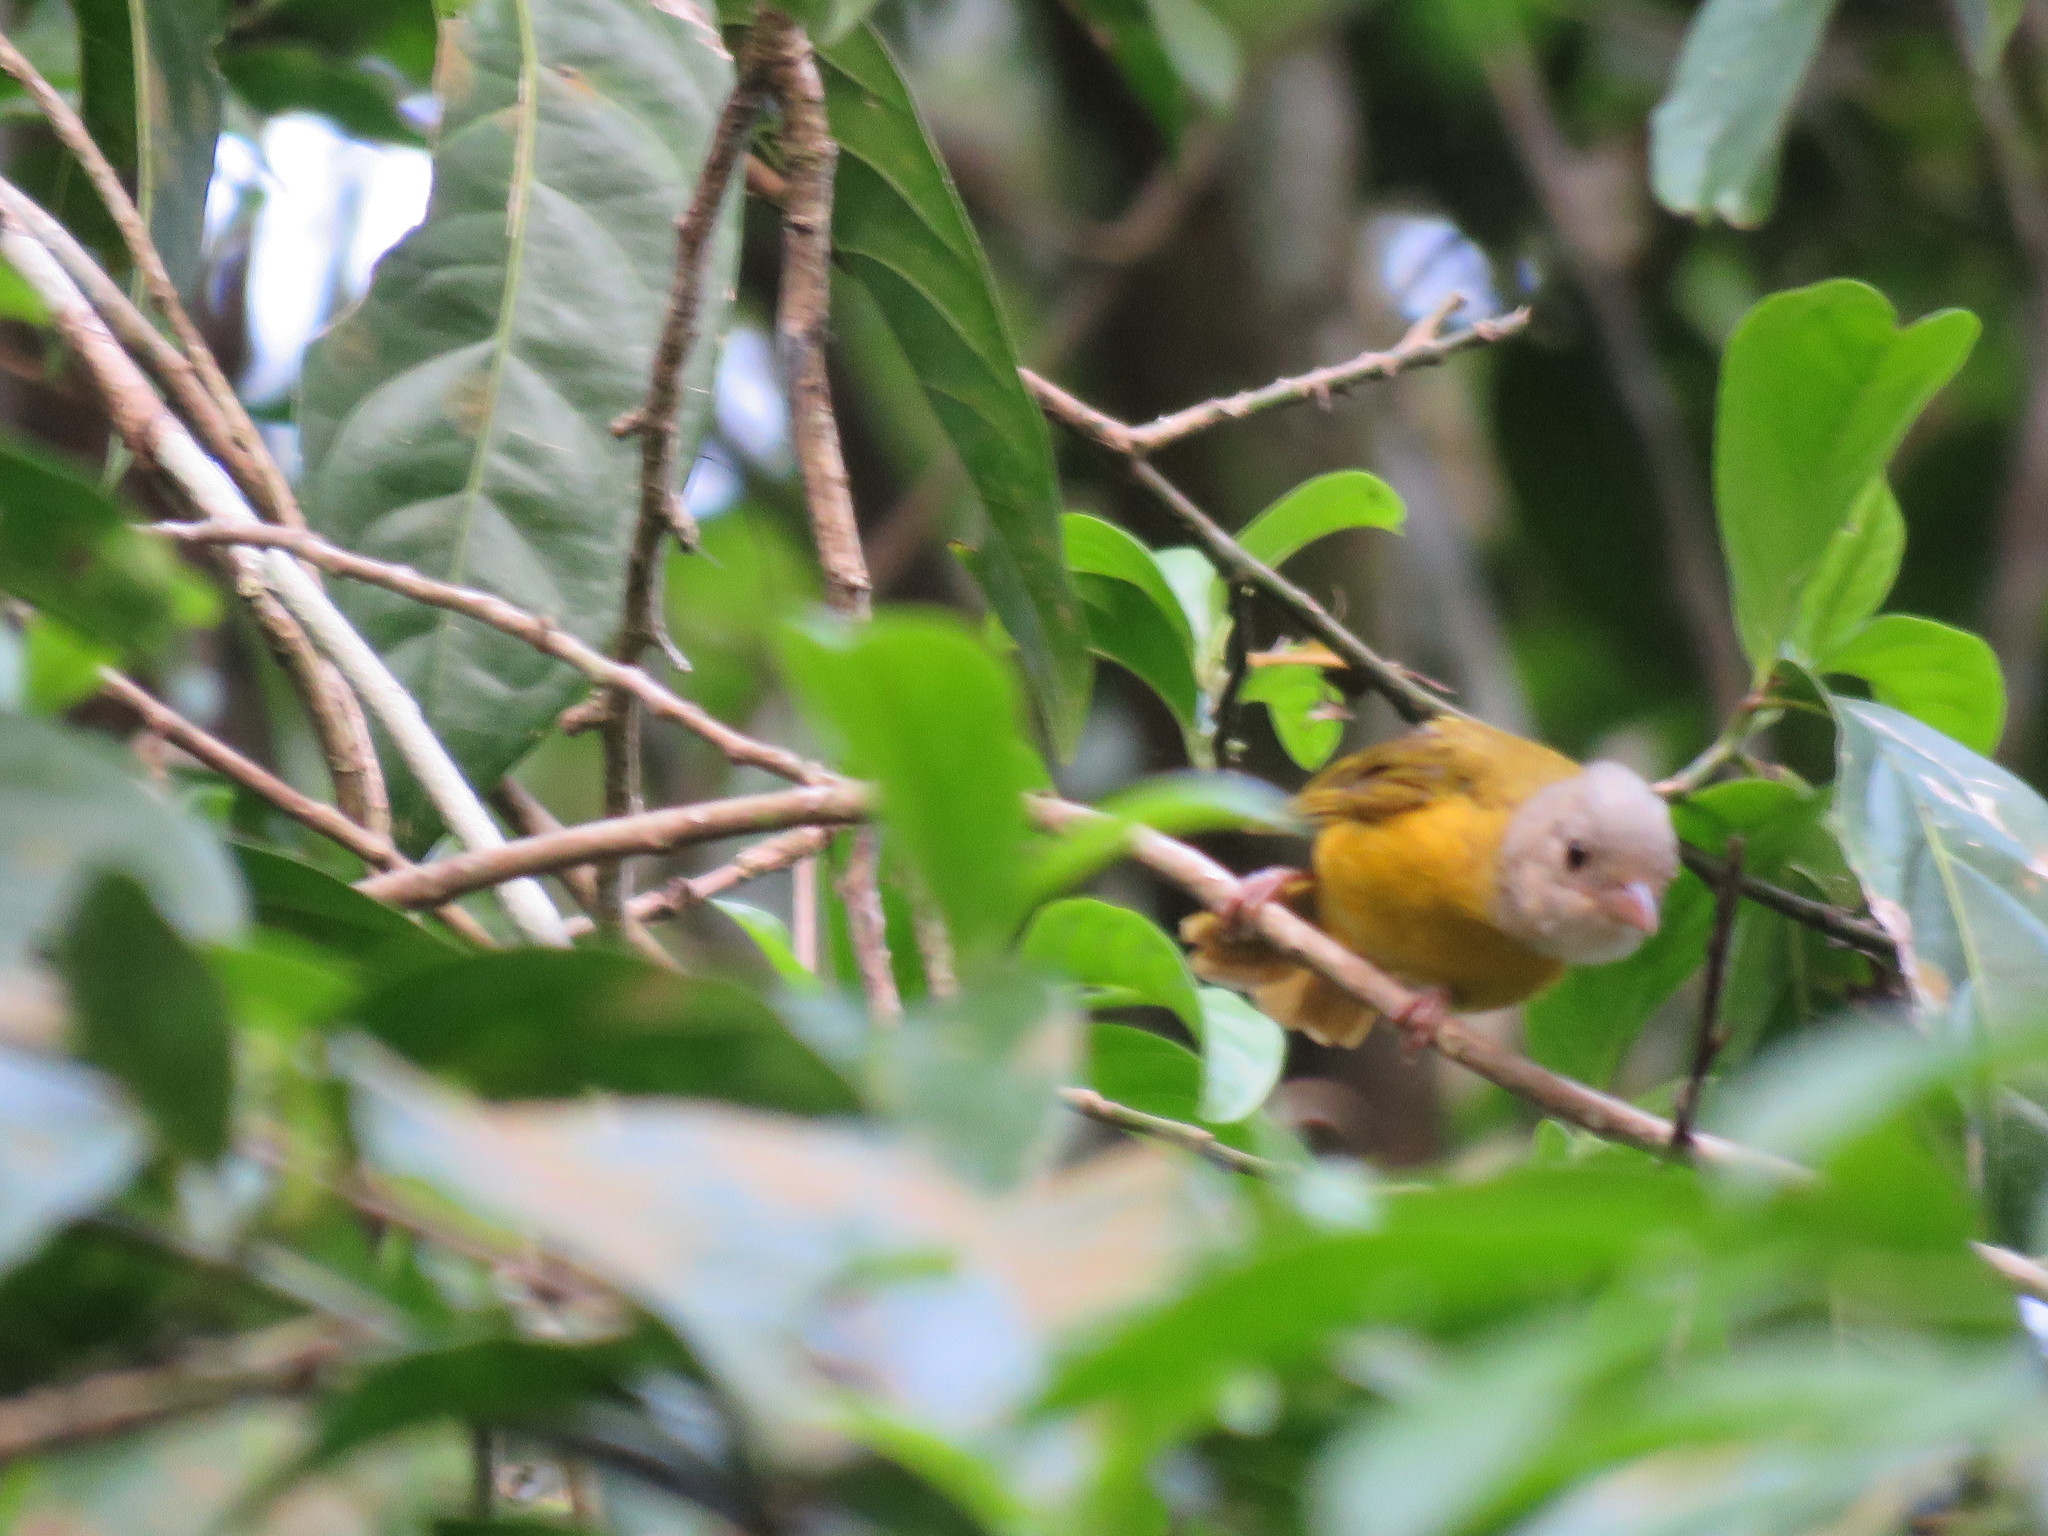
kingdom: Animalia
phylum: Chordata
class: Aves
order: Passeriformes
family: Thraupidae
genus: Eucometis
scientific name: Eucometis penicillata
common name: Grey-headed tanager
